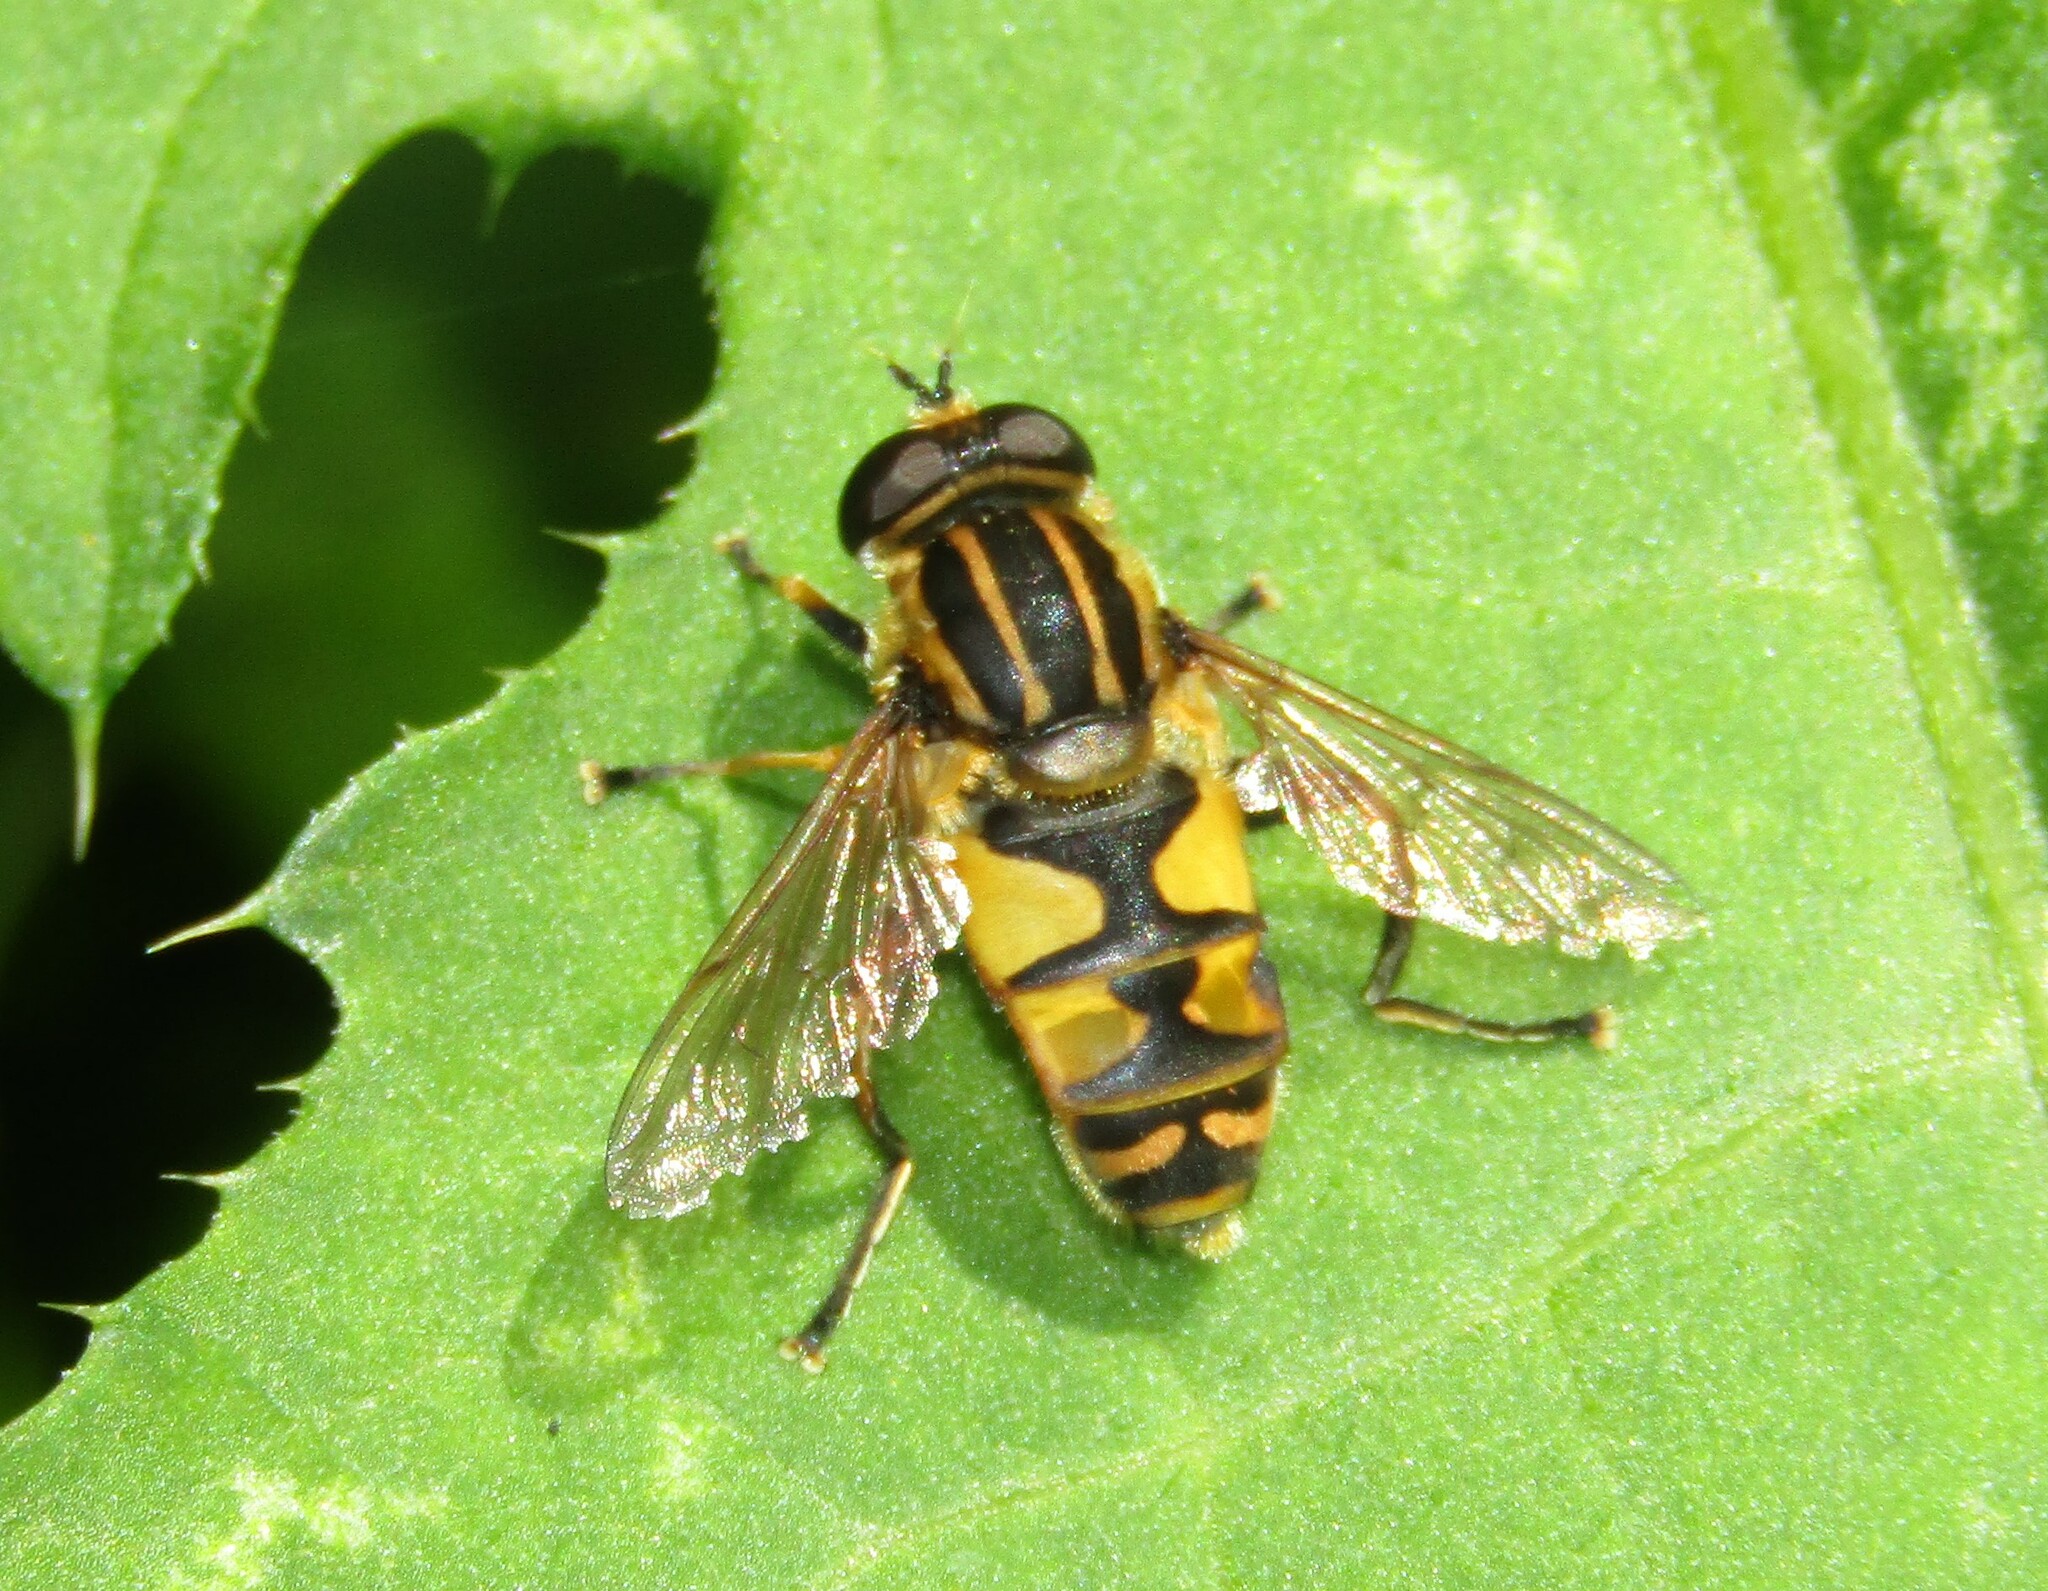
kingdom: Animalia
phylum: Arthropoda
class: Insecta
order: Diptera
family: Syrphidae
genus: Helophilus
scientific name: Helophilus pendulus
